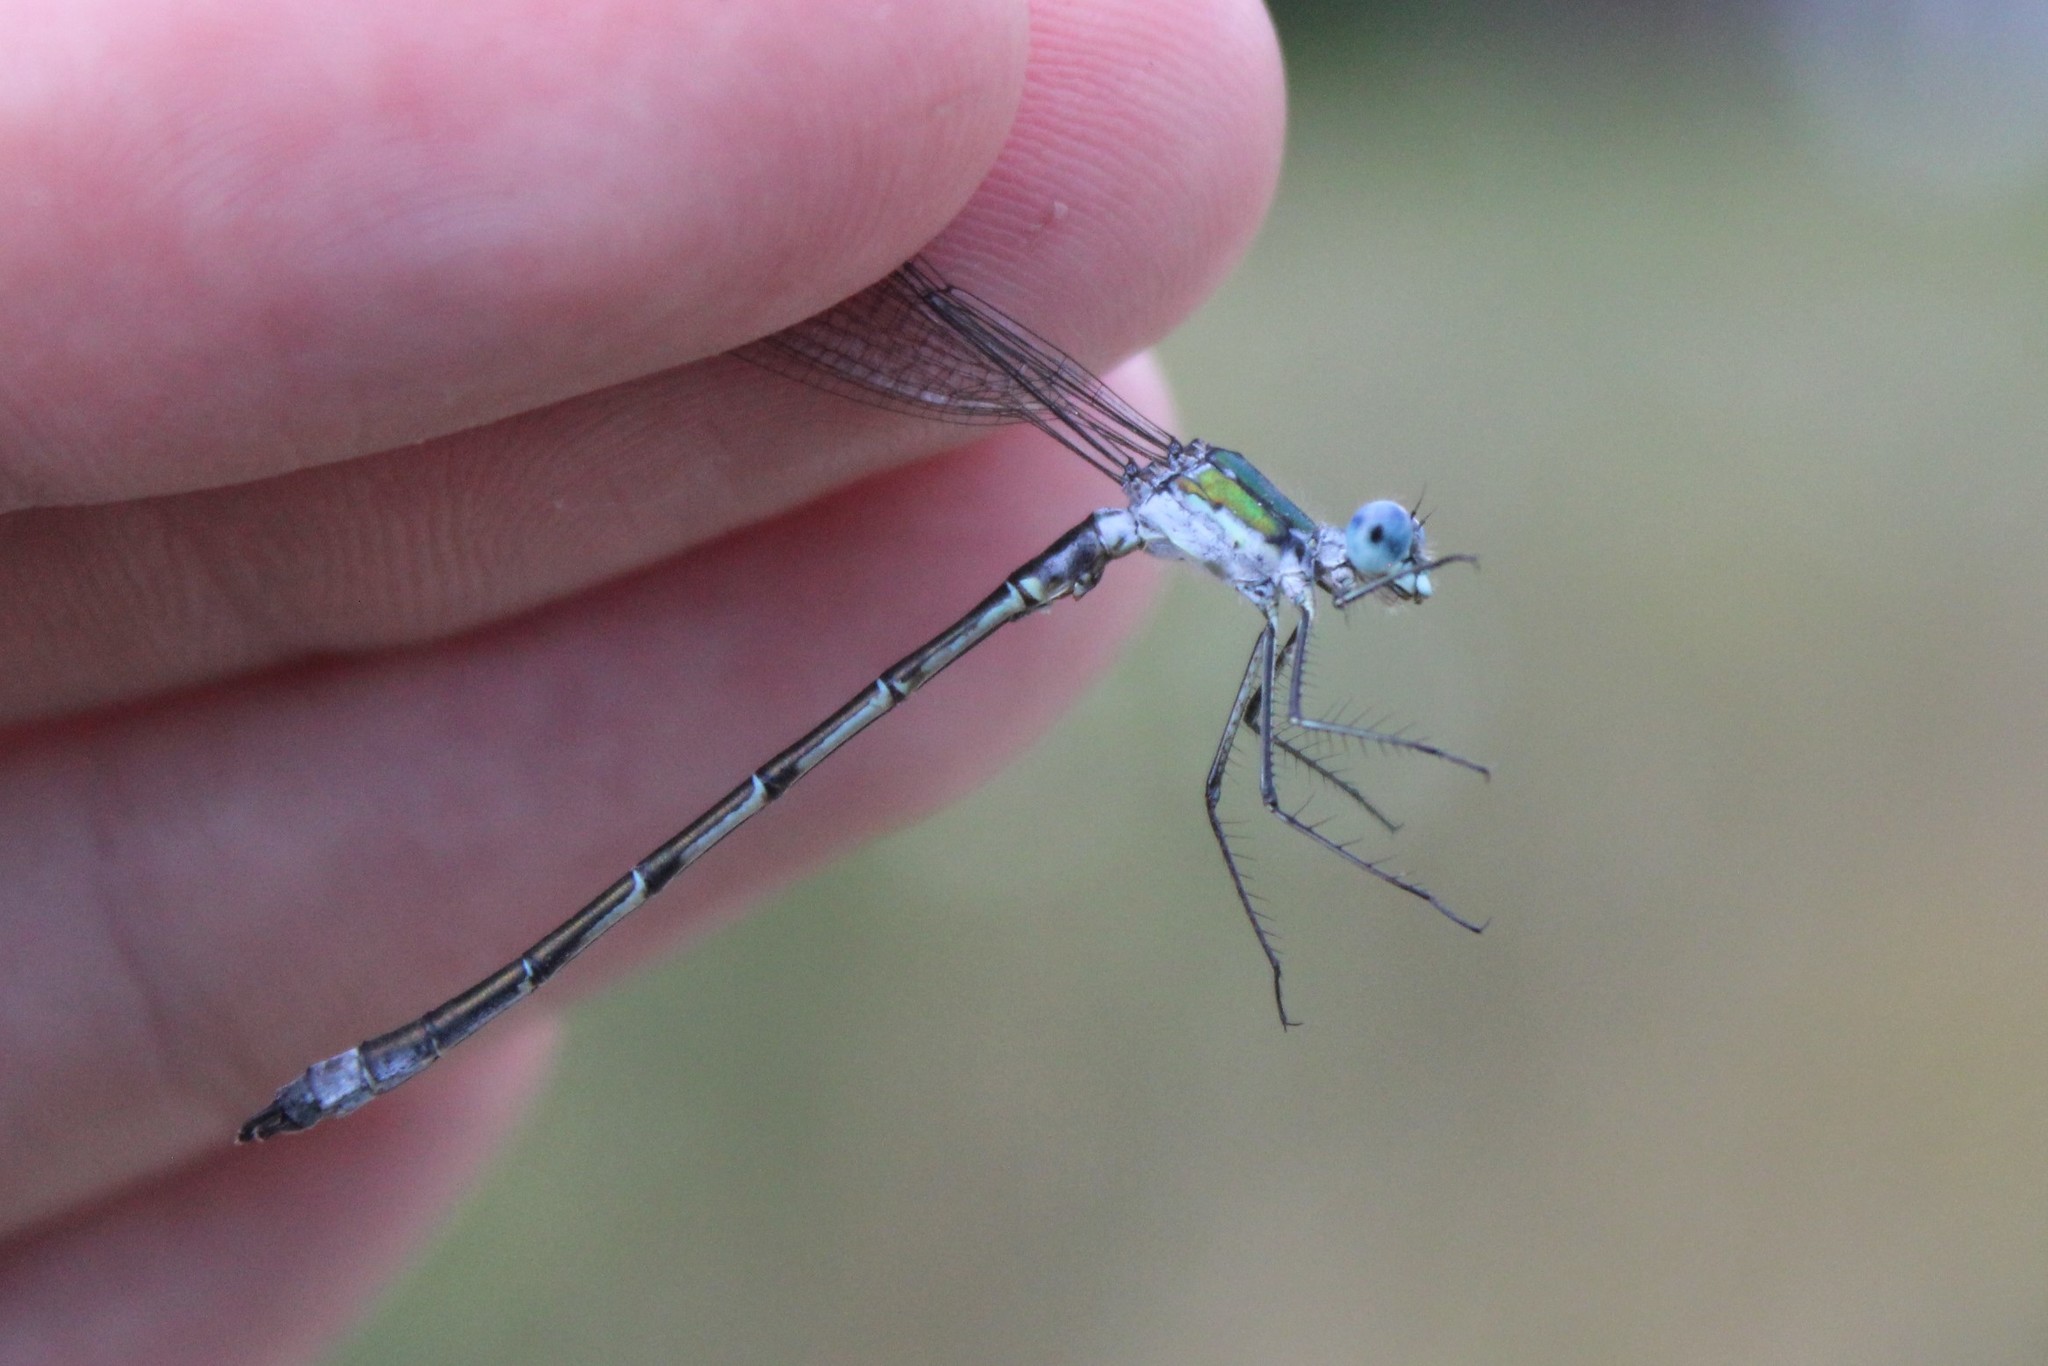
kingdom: Animalia
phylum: Arthropoda
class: Insecta
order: Odonata
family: Lestidae
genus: Lestes
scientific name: Lestes dryas
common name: Scarce emerald damselfly
